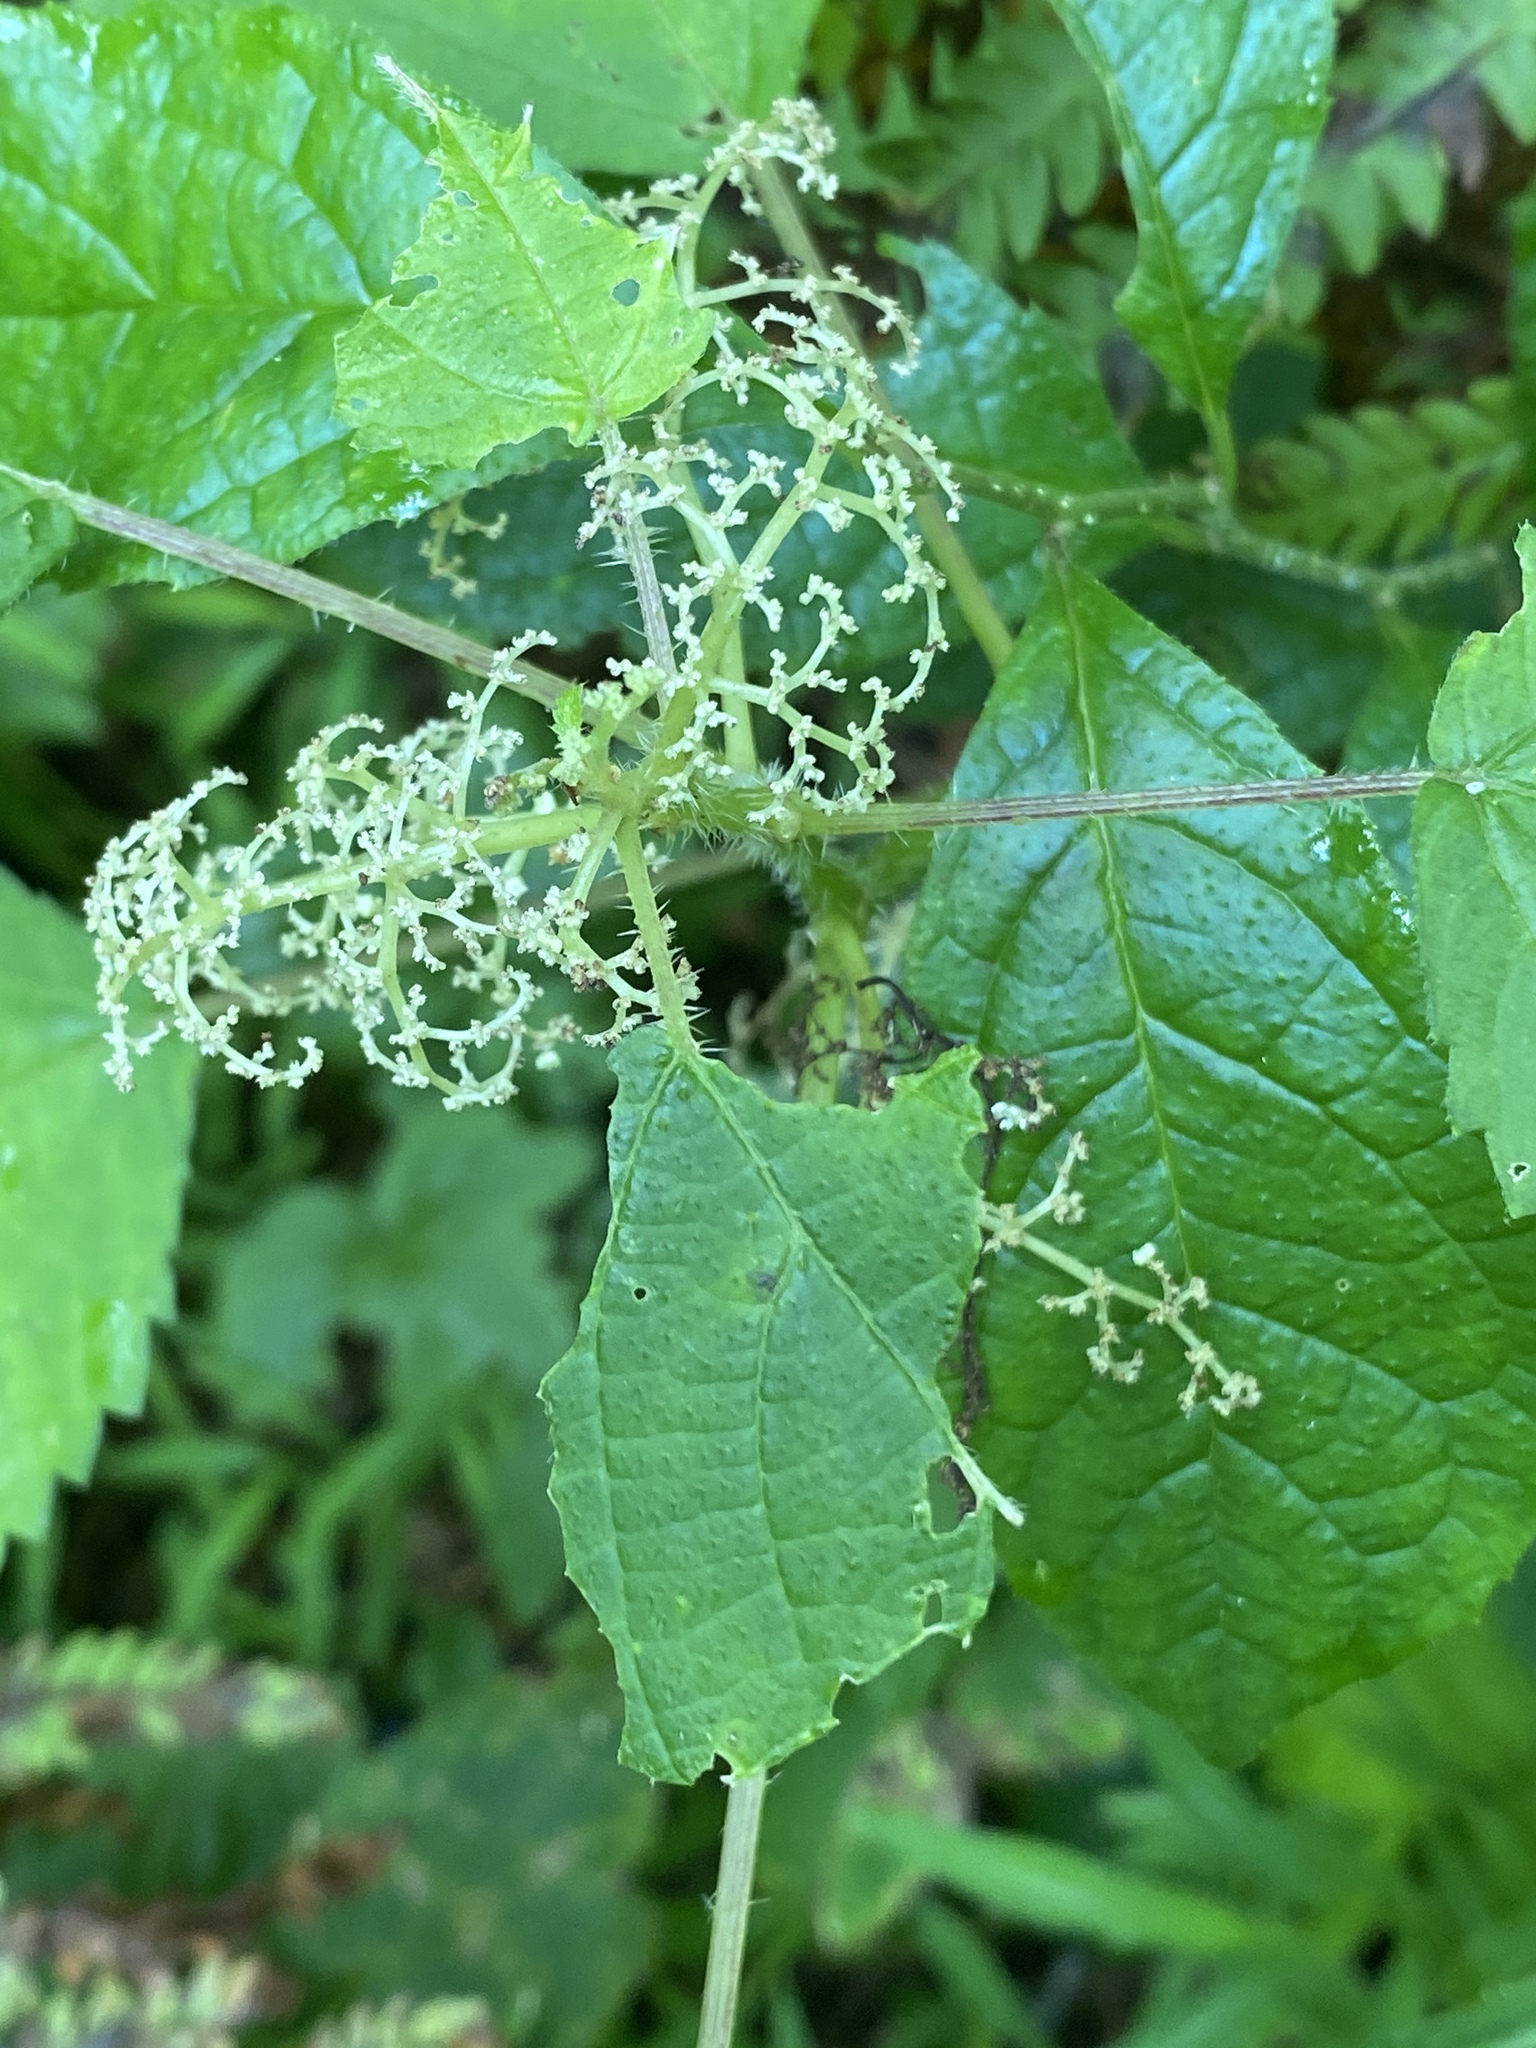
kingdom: Plantae
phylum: Tracheophyta
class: Magnoliopsida
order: Rosales
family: Urticaceae
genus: Laportea
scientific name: Laportea canadensis
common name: Canada nettle
